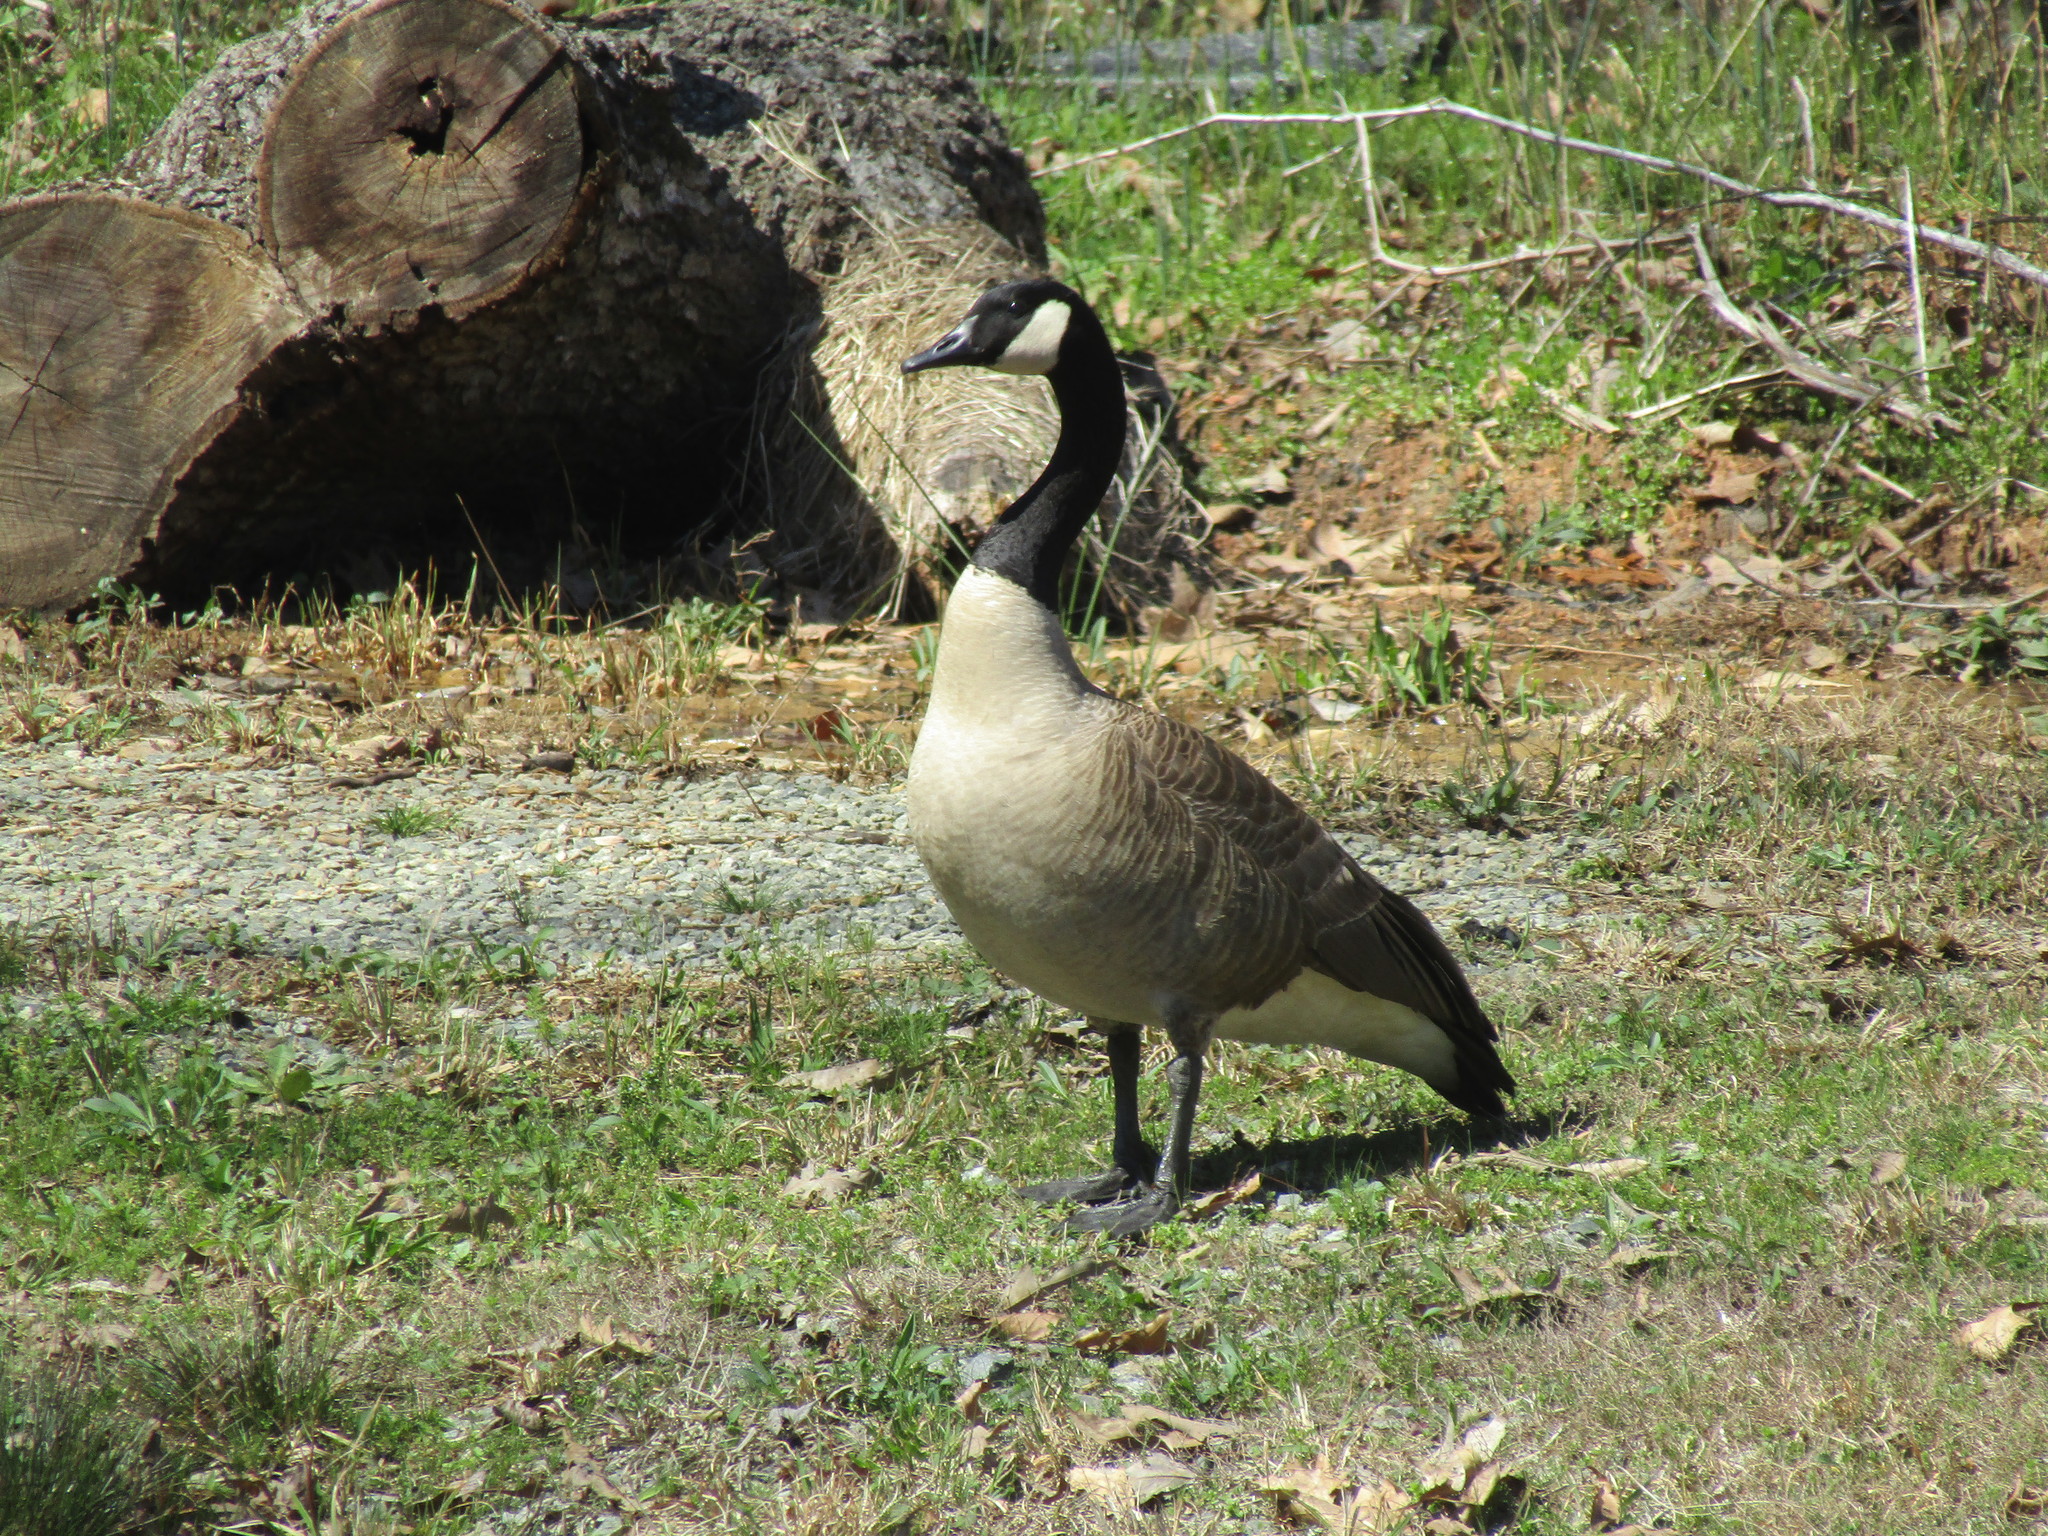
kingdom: Animalia
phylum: Chordata
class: Aves
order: Anseriformes
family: Anatidae
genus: Branta
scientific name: Branta canadensis
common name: Canada goose
